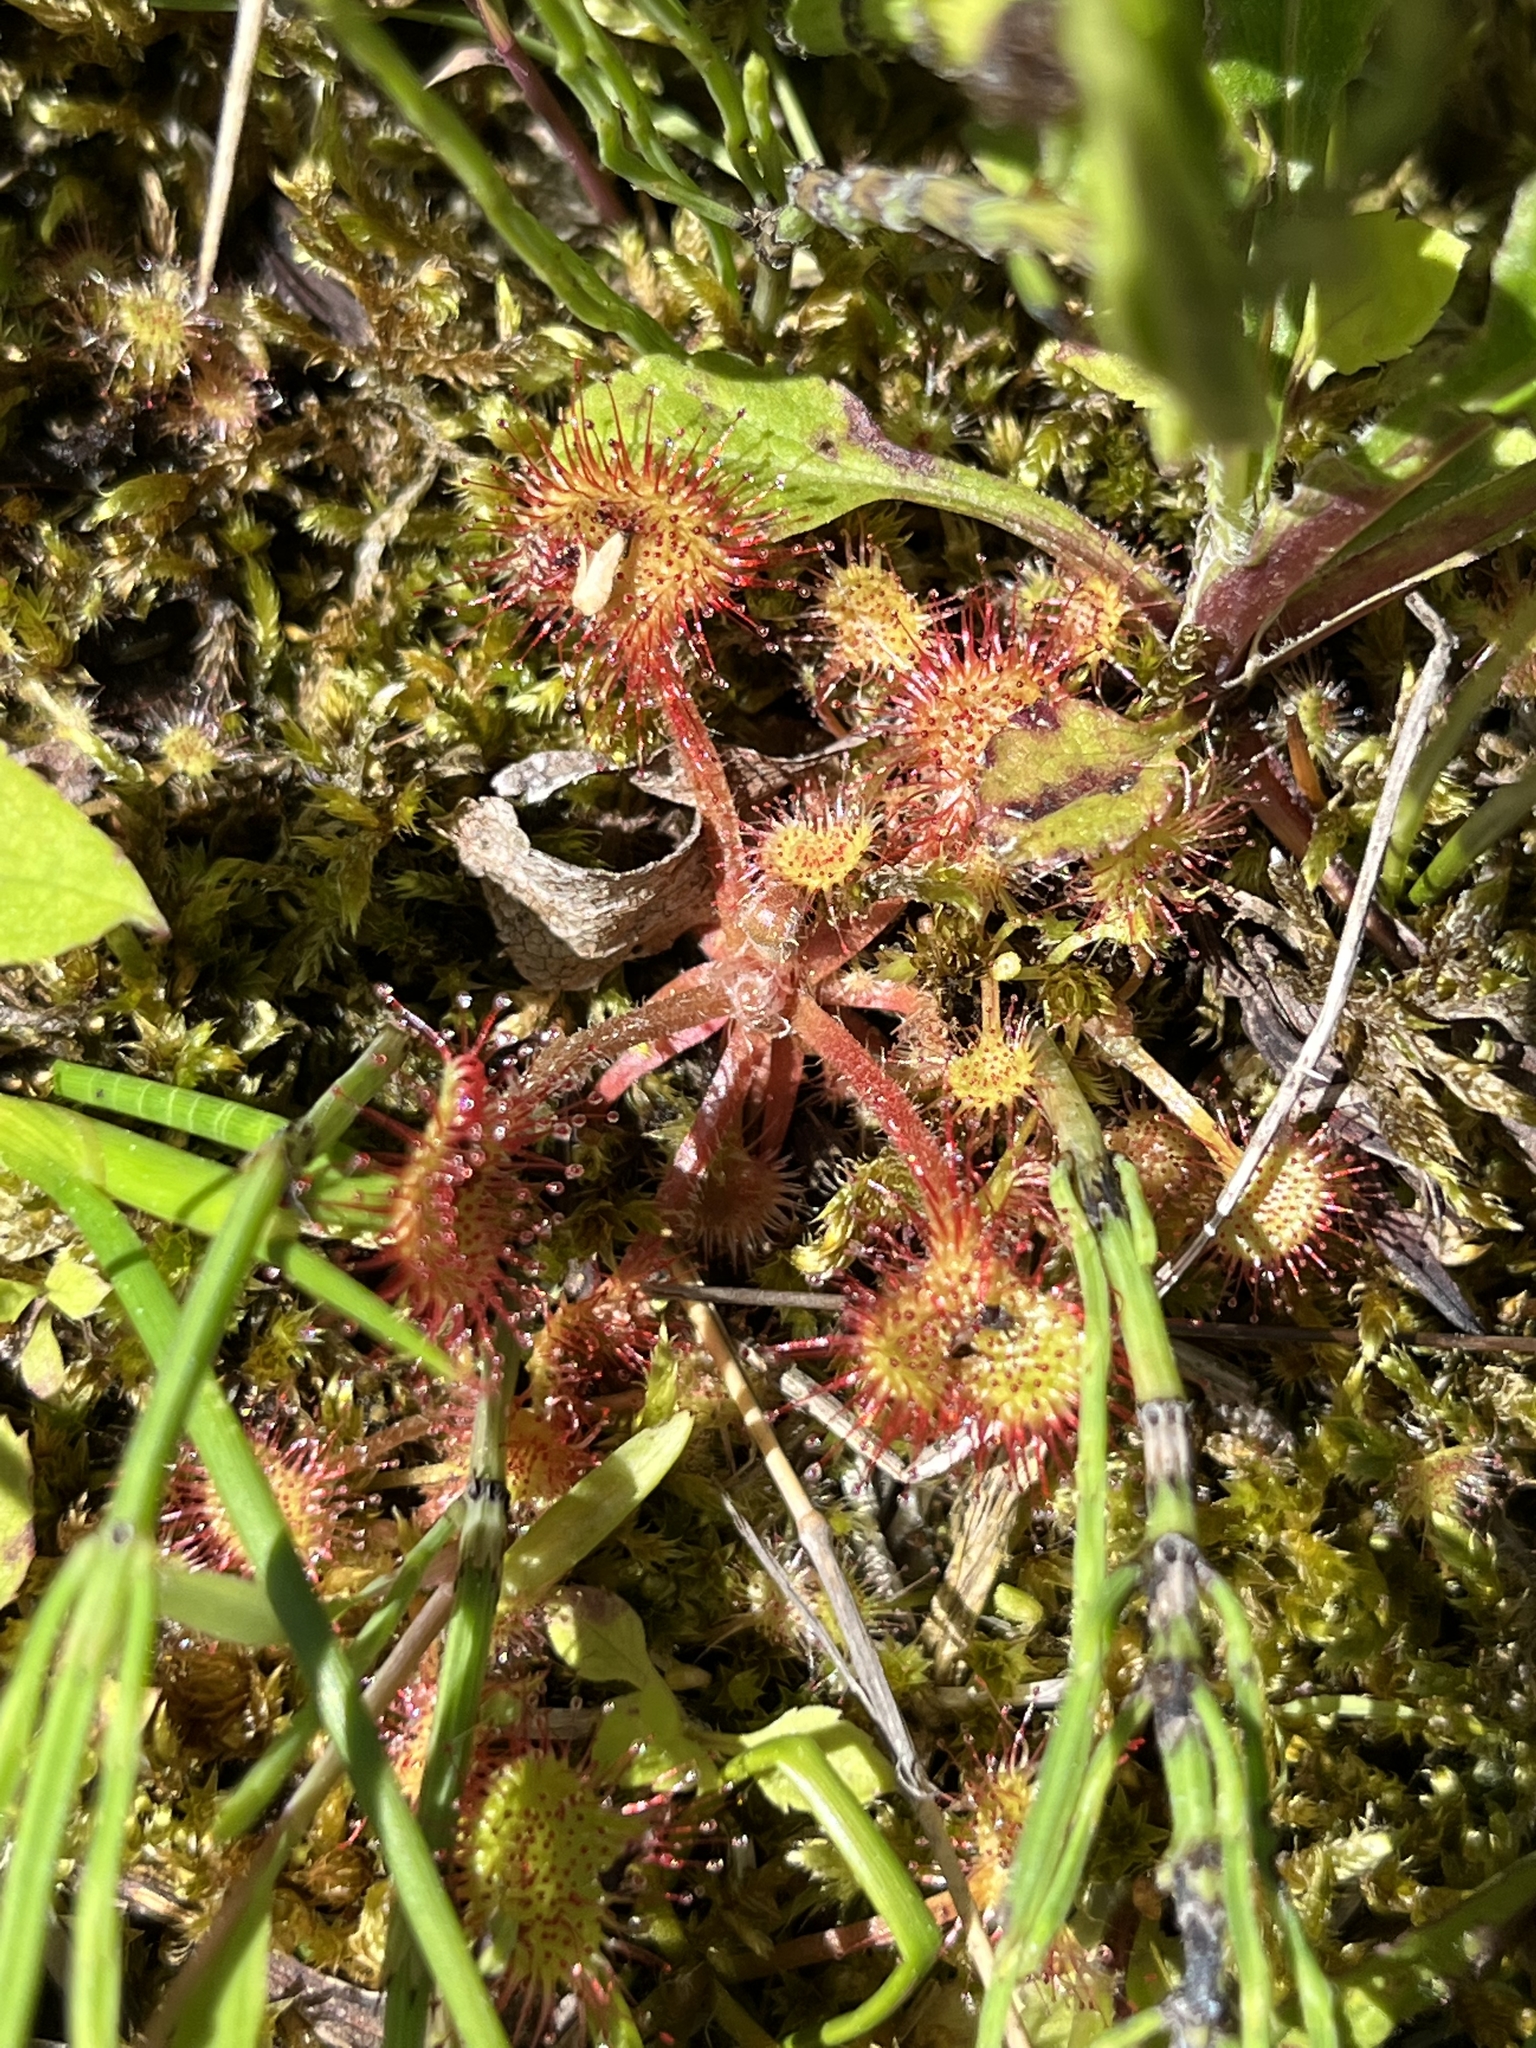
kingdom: Plantae
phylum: Tracheophyta
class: Magnoliopsida
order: Caryophyllales
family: Droseraceae
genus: Drosera
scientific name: Drosera rotundifolia
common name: Round-leaved sundew
